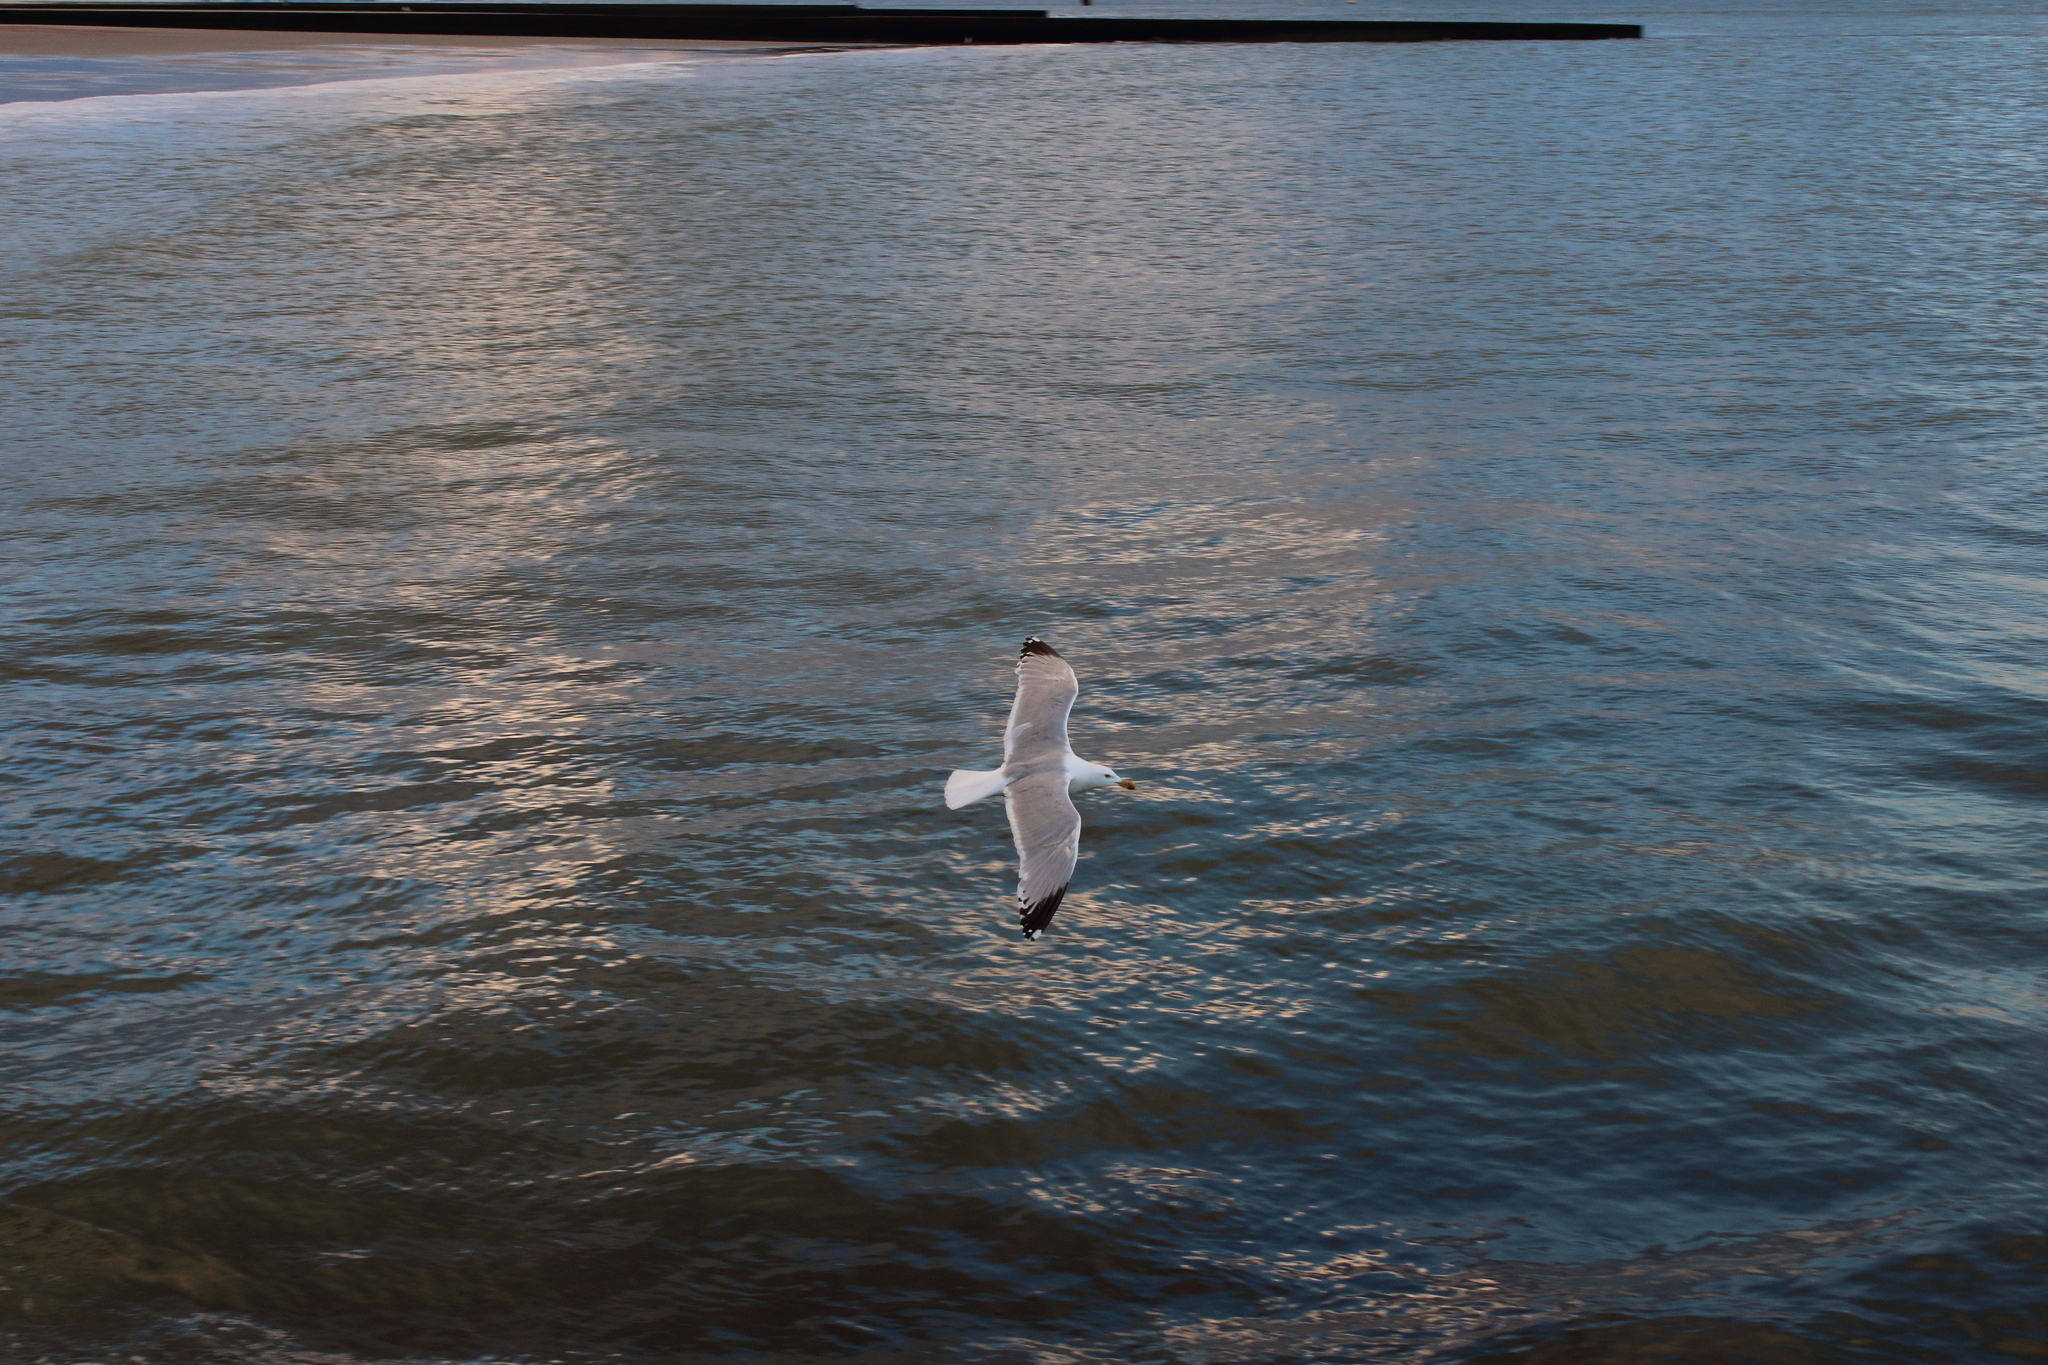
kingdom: Animalia
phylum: Chordata
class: Aves
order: Charadriiformes
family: Laridae
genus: Larus
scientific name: Larus argentatus
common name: Herring gull
